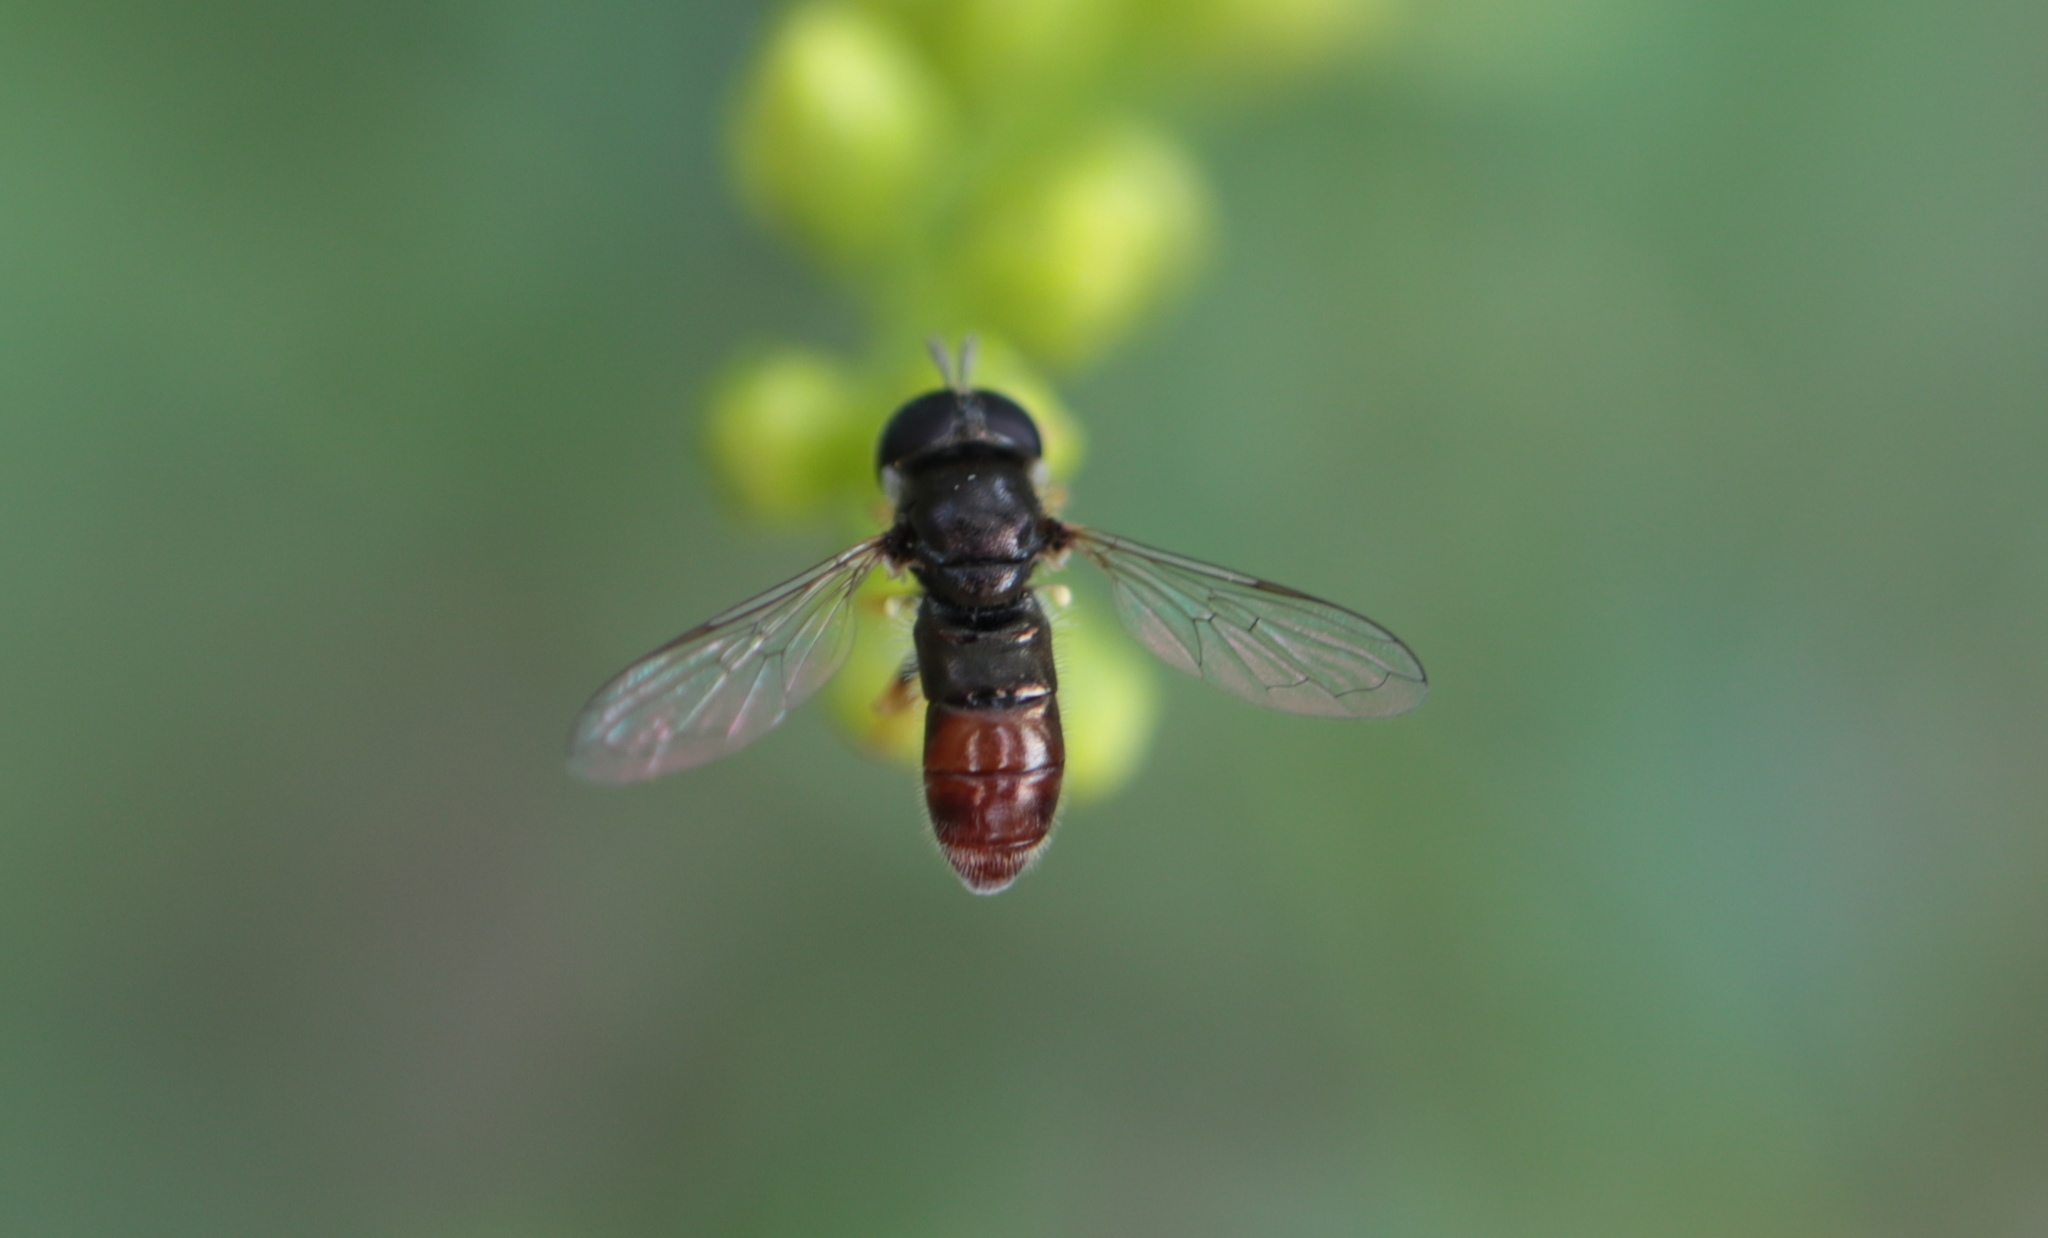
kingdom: Animalia
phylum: Arthropoda
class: Insecta
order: Diptera
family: Syrphidae
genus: Paragus
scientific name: Paragus haemorrhous
